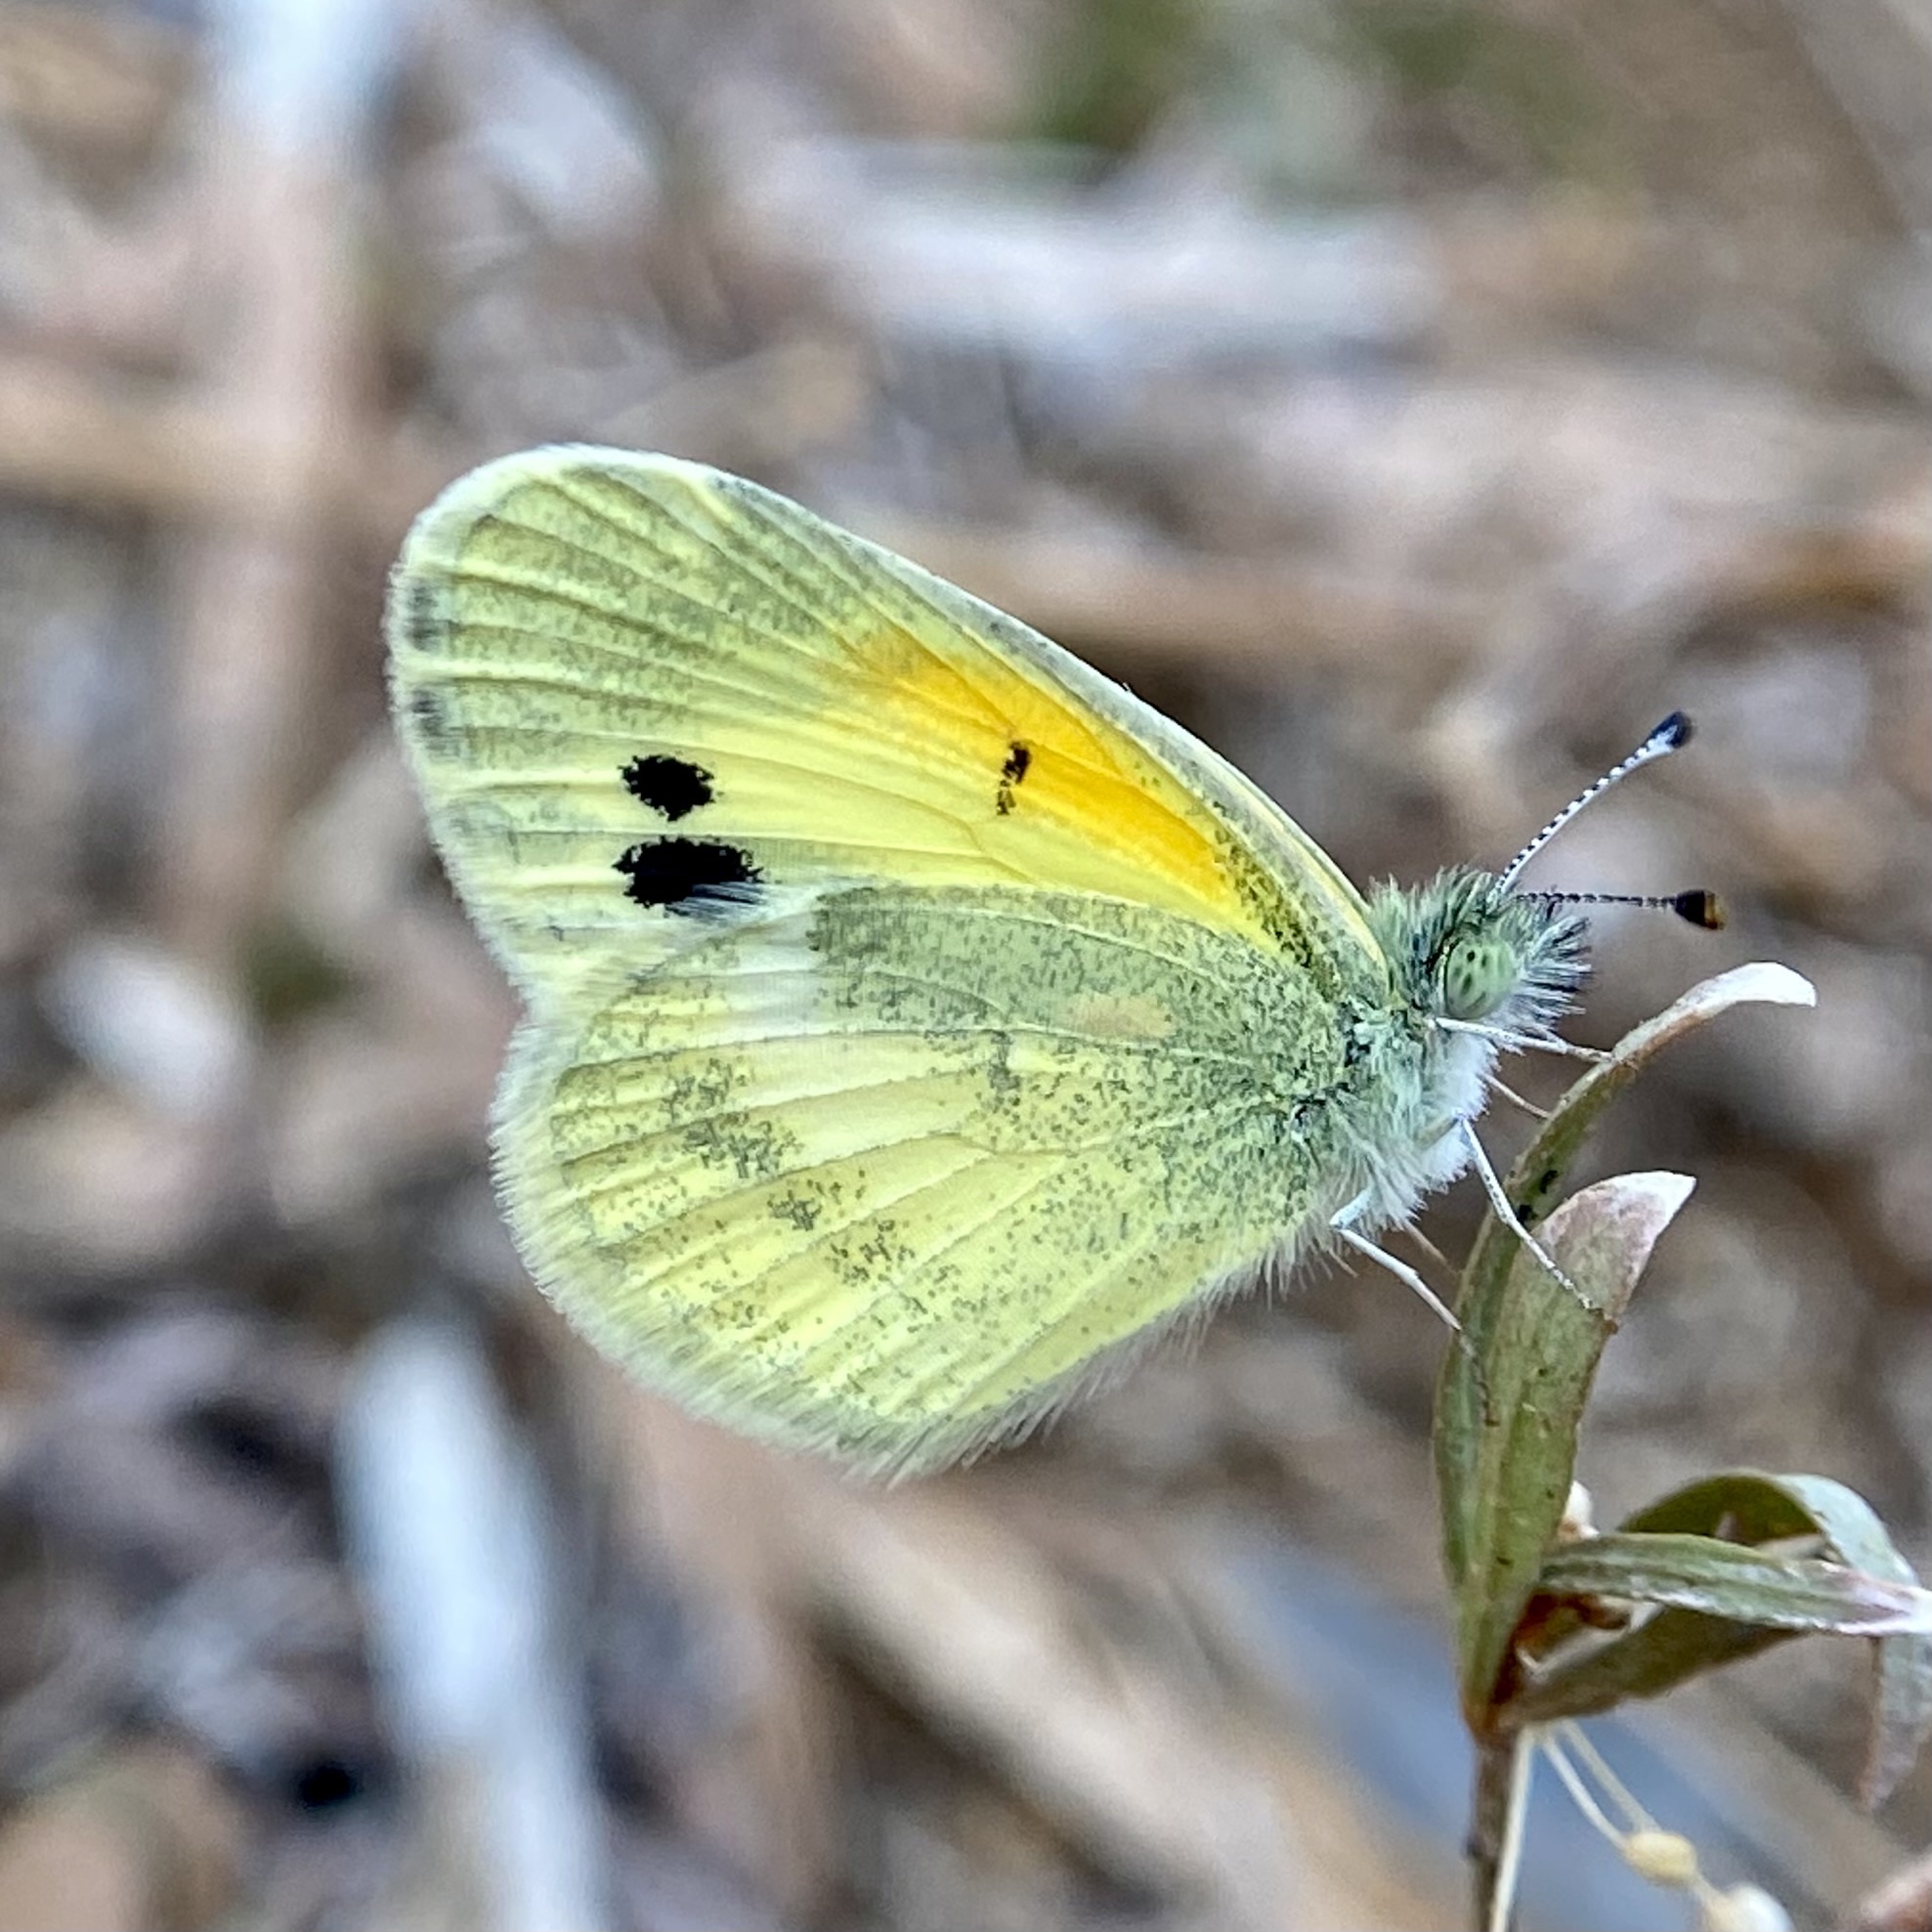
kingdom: Animalia
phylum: Arthropoda
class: Insecta
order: Lepidoptera
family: Pieridae
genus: Nathalis
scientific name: Nathalis iole
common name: Dainty sulphur
